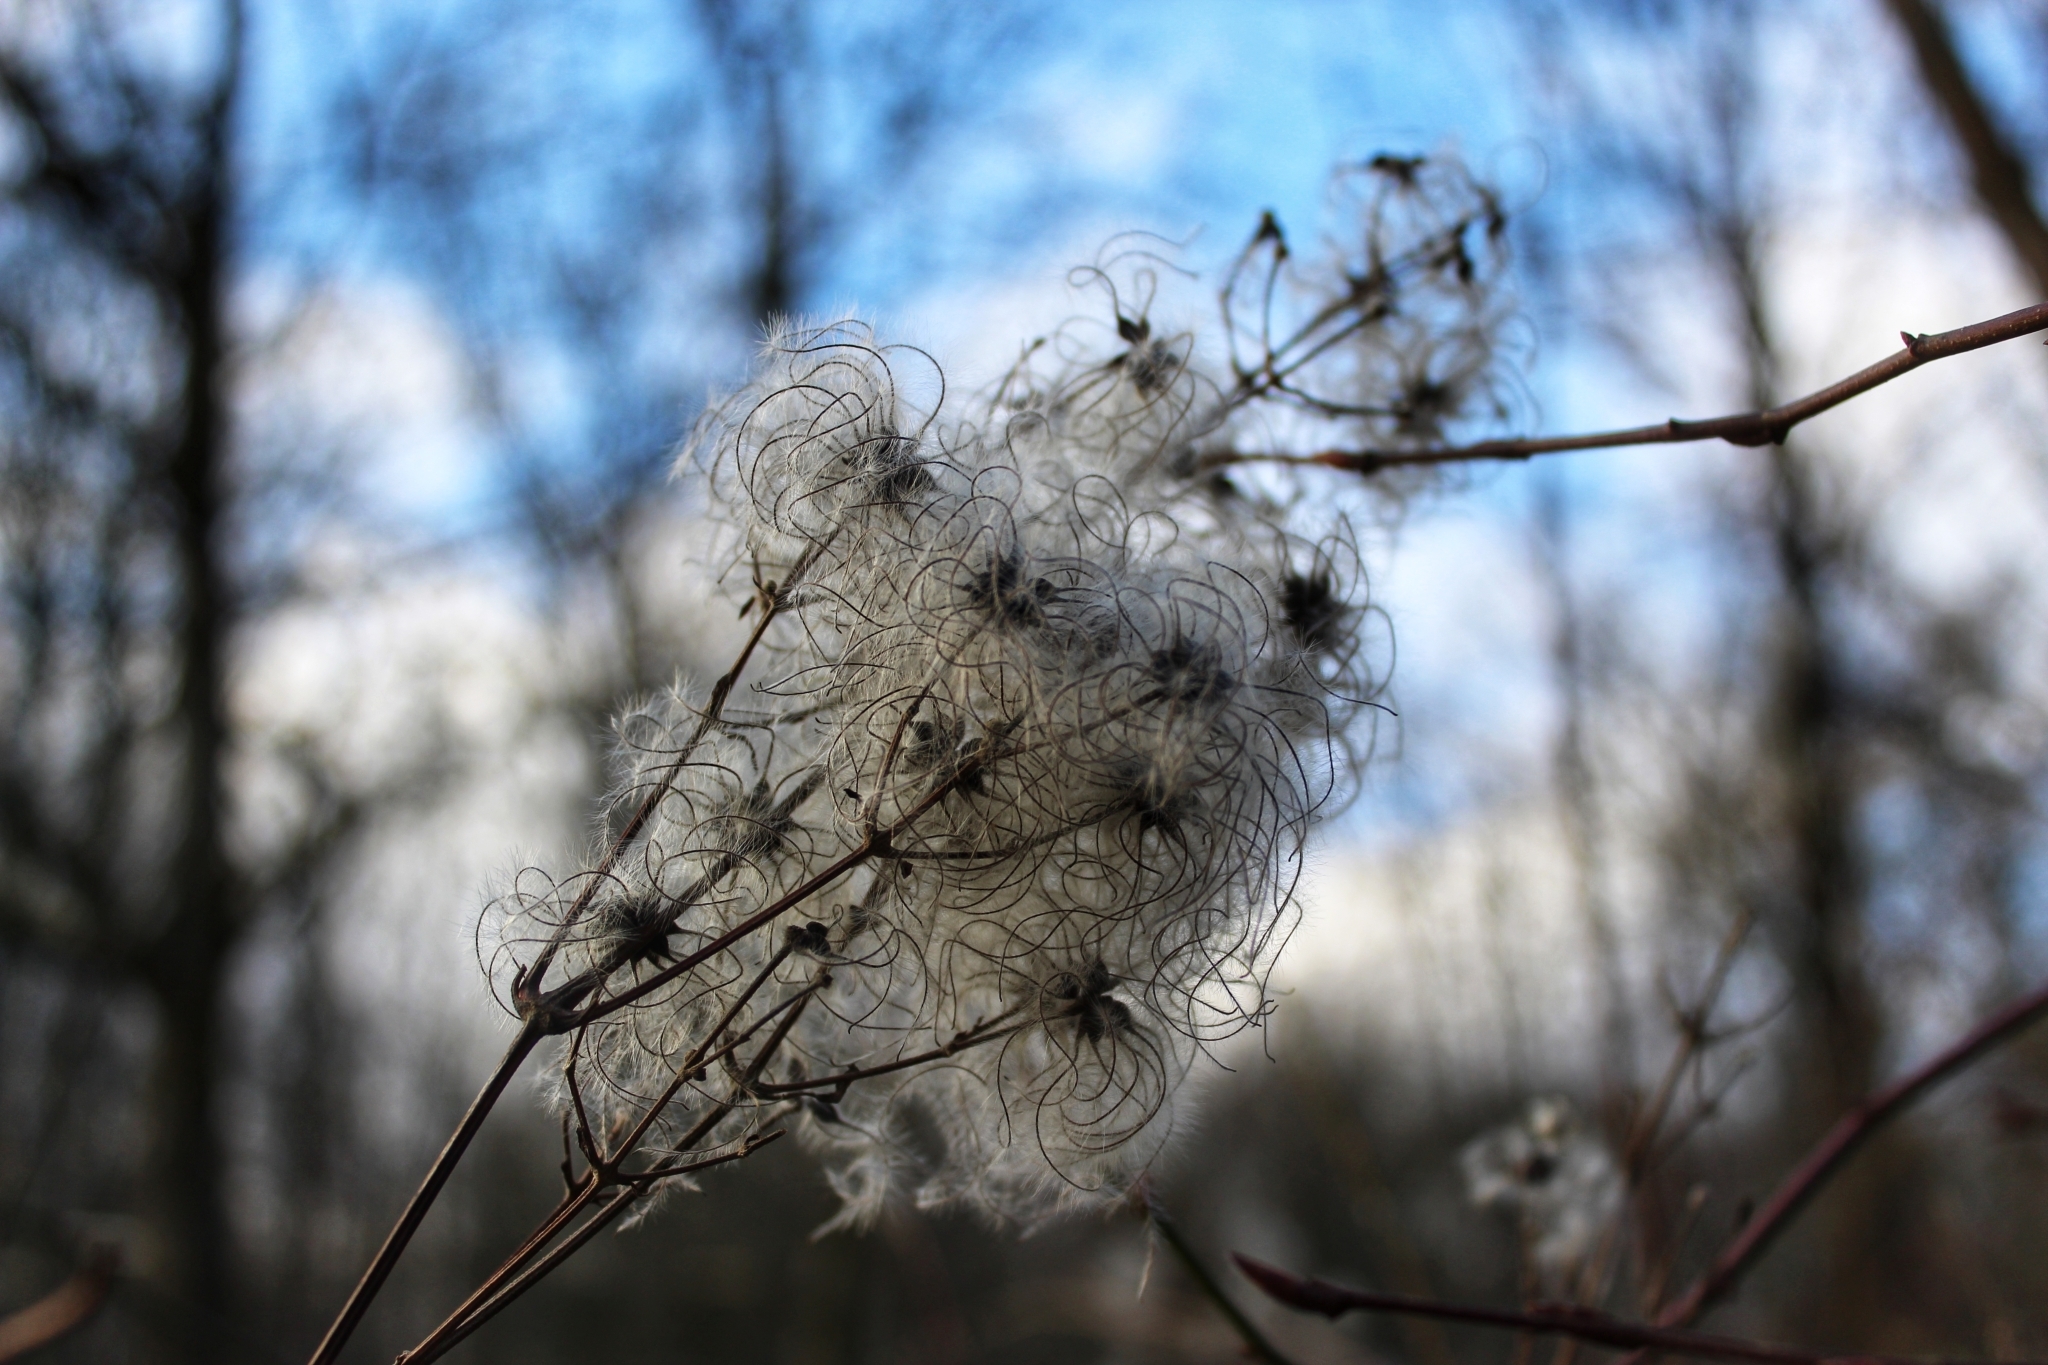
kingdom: Plantae
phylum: Tracheophyta
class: Magnoliopsida
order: Ranunculales
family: Ranunculaceae
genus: Clematis
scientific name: Clematis vitalba
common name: Evergreen clematis
